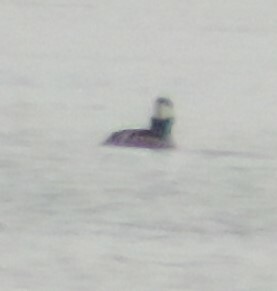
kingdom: Animalia
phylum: Chordata
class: Aves
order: Anseriformes
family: Anatidae
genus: Lophodytes
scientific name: Lophodytes cucullatus
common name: Hooded merganser
